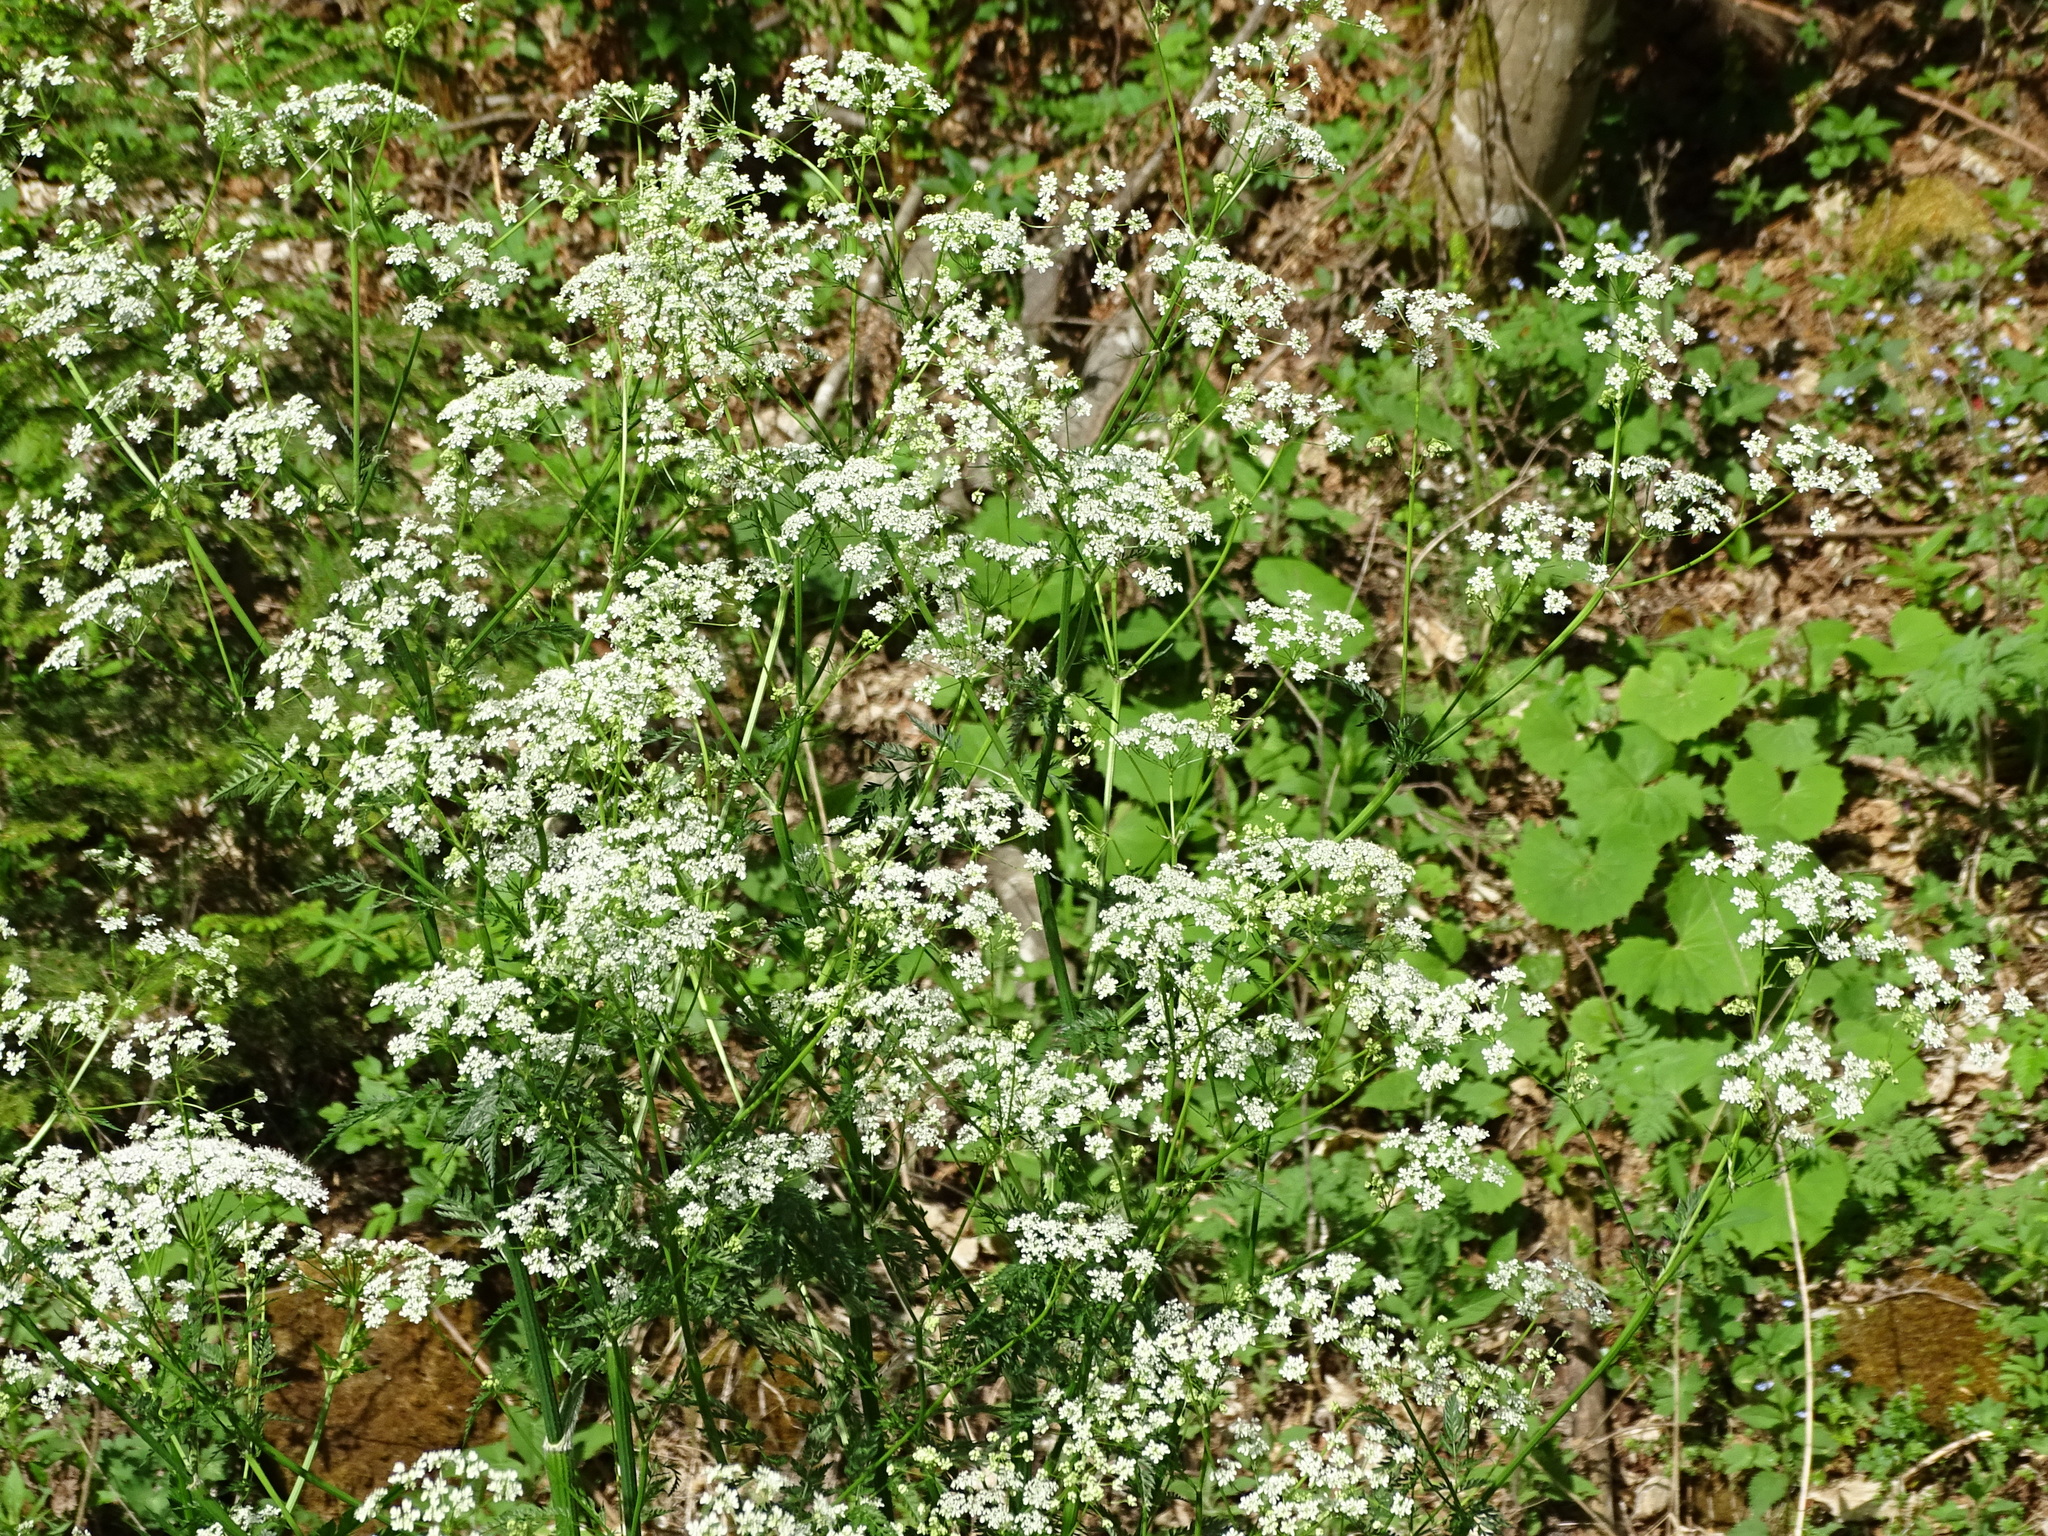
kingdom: Plantae
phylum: Tracheophyta
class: Magnoliopsida
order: Apiales
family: Apiaceae
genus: Anthriscus
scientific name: Anthriscus sylvestris
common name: Cow parsley
